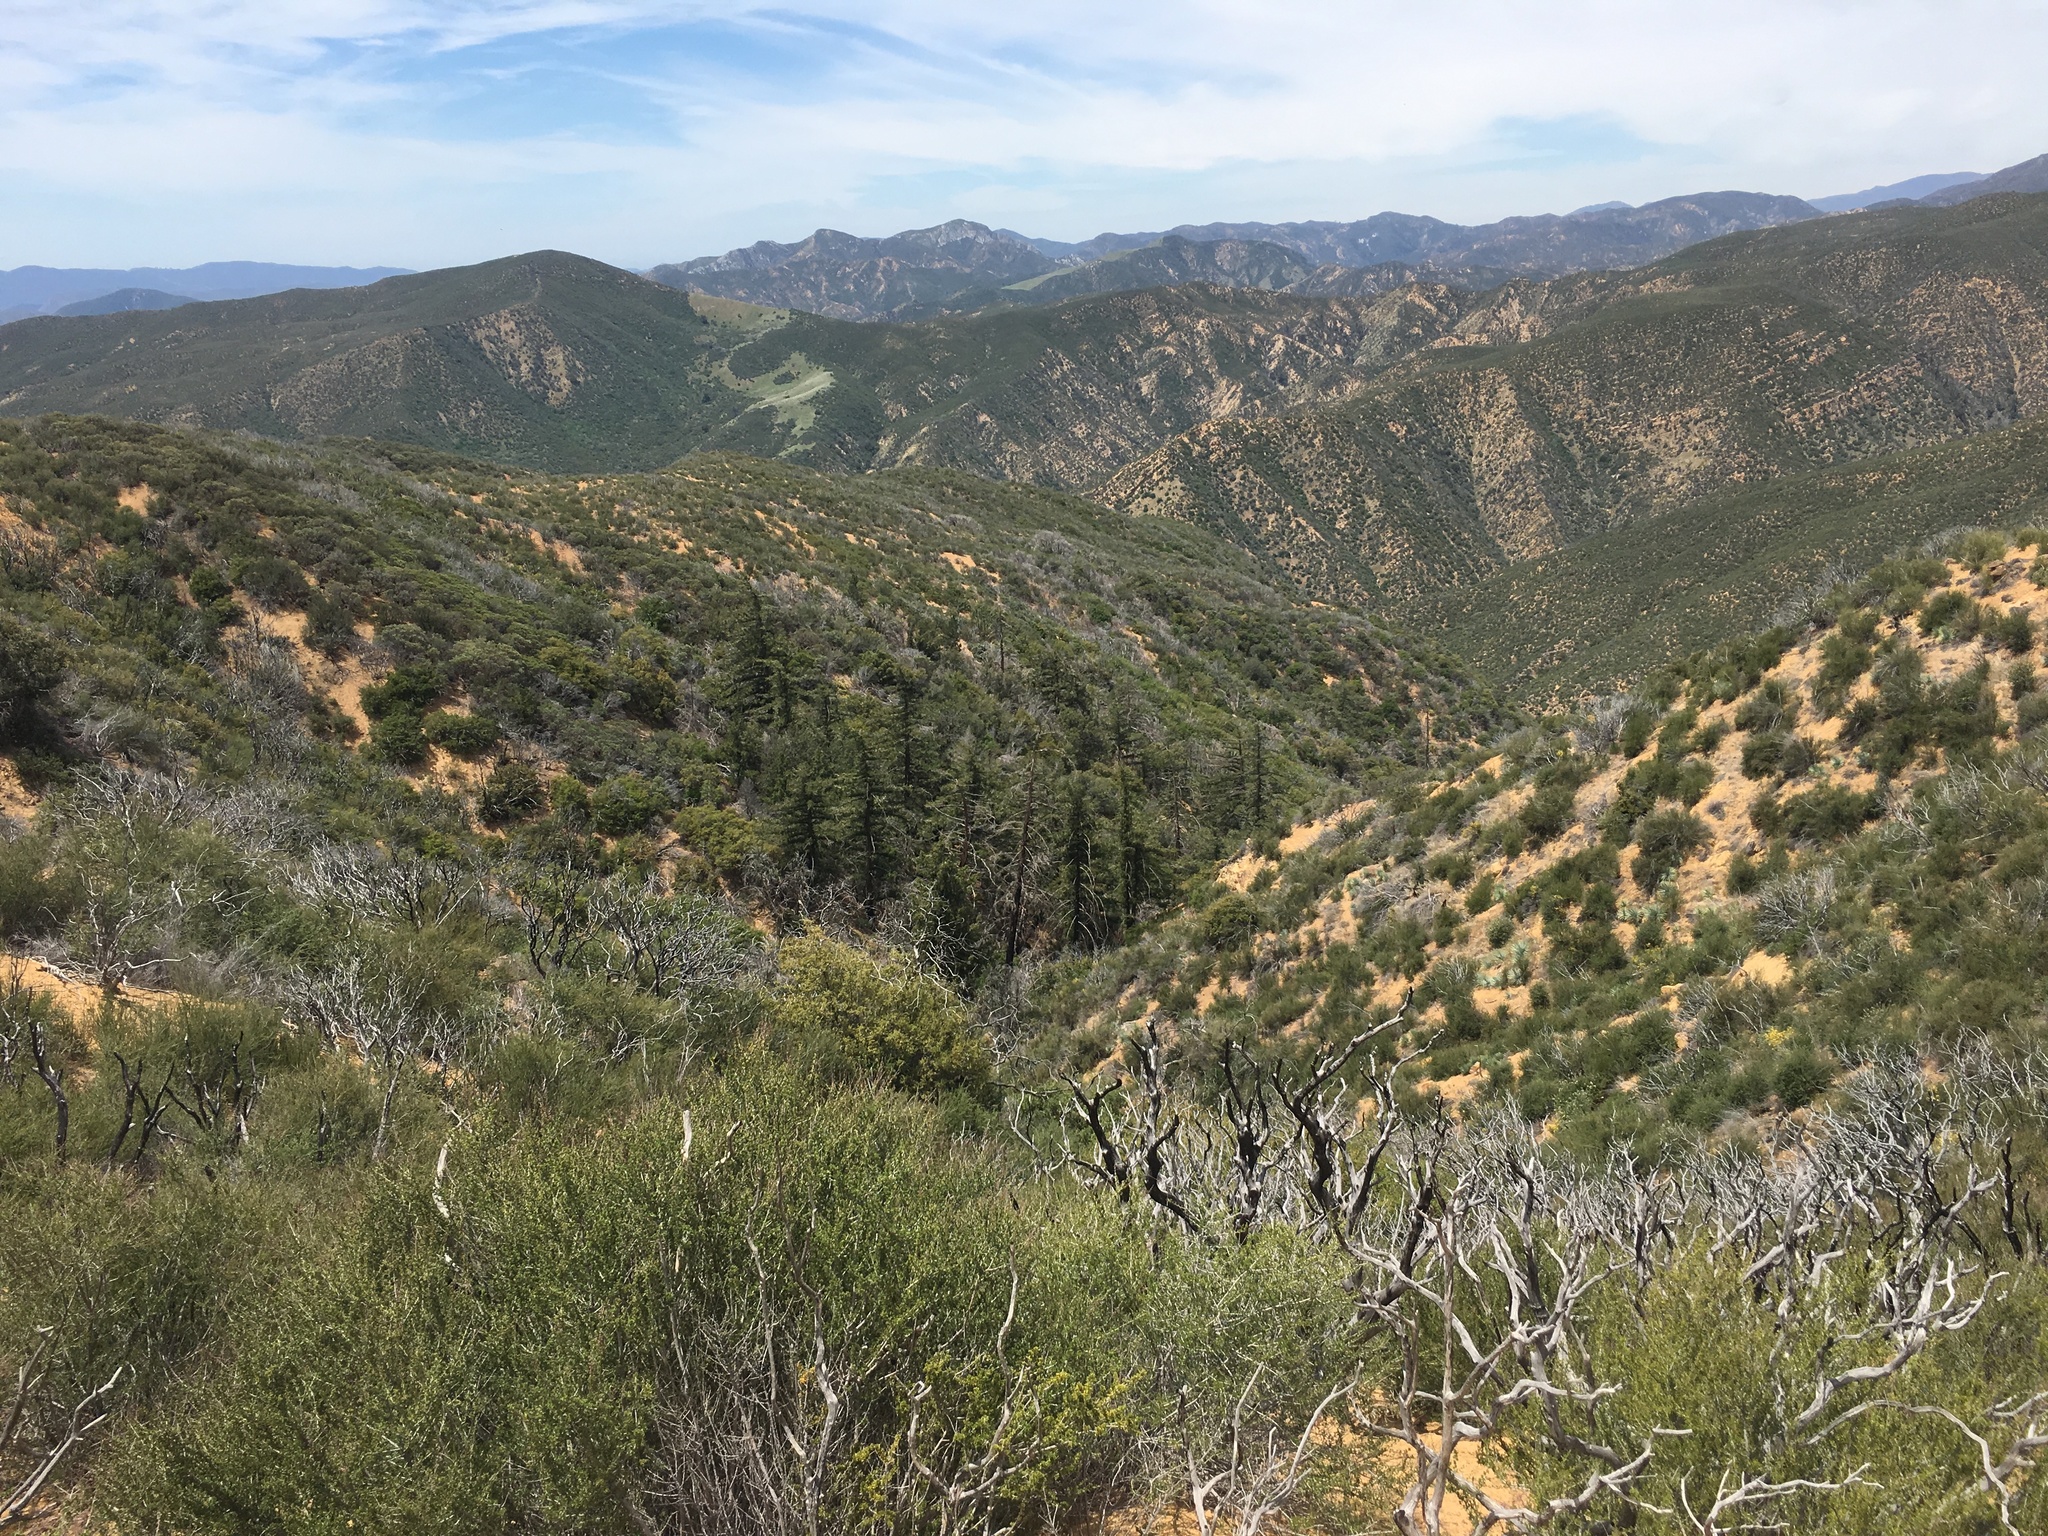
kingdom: Plantae
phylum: Tracheophyta
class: Pinopsida
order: Pinales
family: Pinaceae
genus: Pseudotsuga
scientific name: Pseudotsuga macrocarpa
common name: Big-cone douglas-fir
